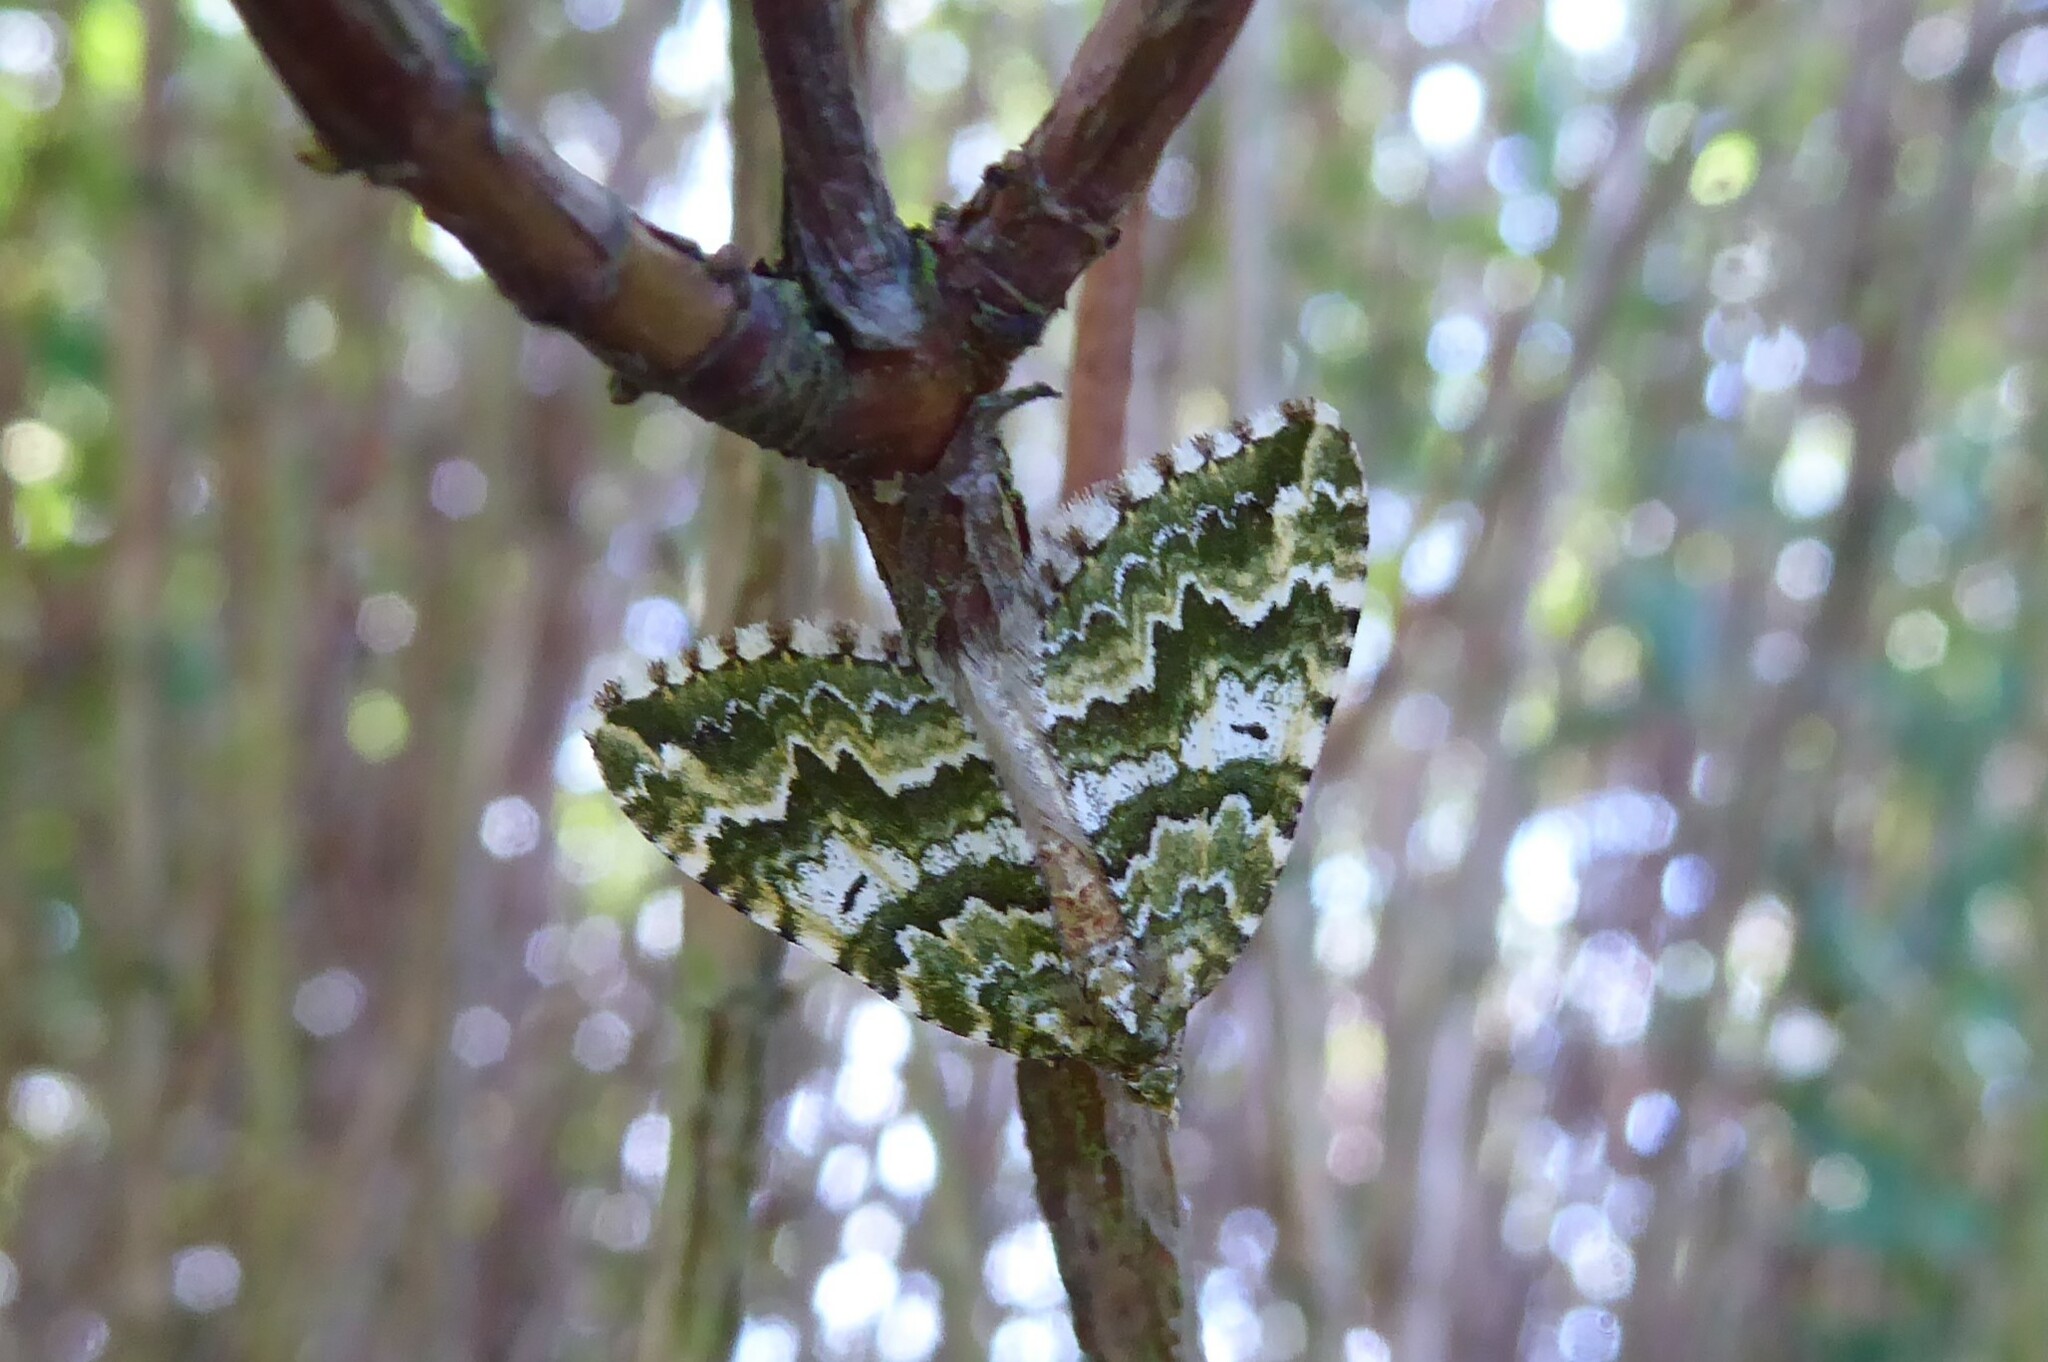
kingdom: Animalia
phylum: Arthropoda
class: Insecta
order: Lepidoptera
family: Geometridae
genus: Asaphodes
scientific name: Asaphodes beata
